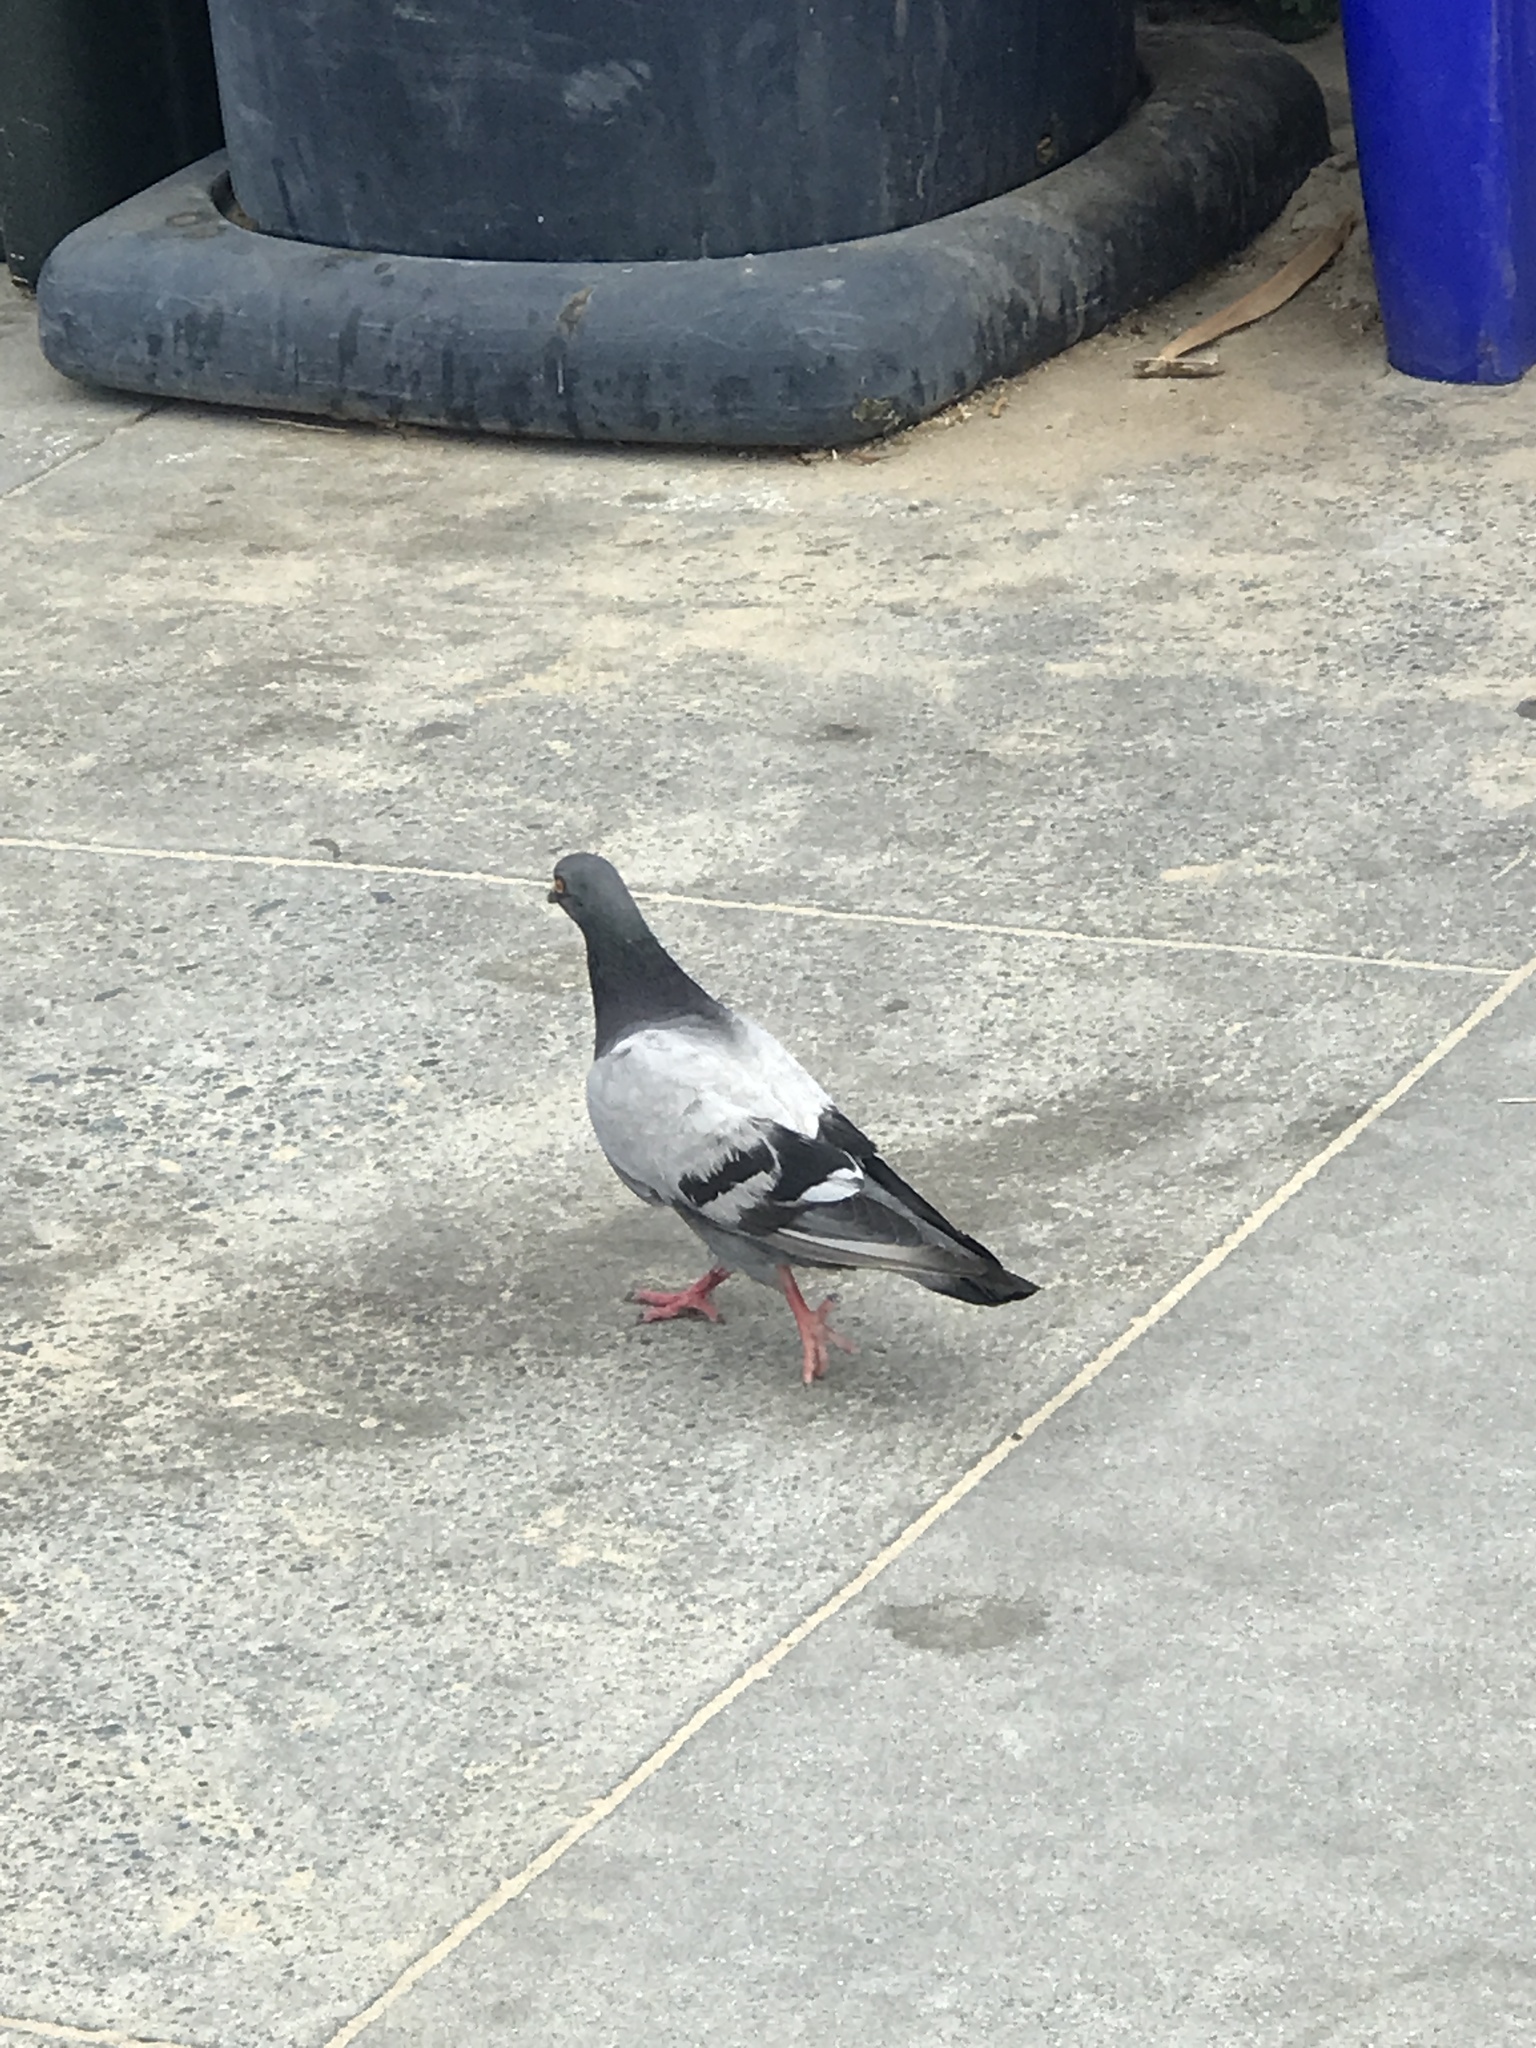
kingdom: Animalia
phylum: Chordata
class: Aves
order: Columbiformes
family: Columbidae
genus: Columba
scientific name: Columba livia
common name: Rock pigeon
